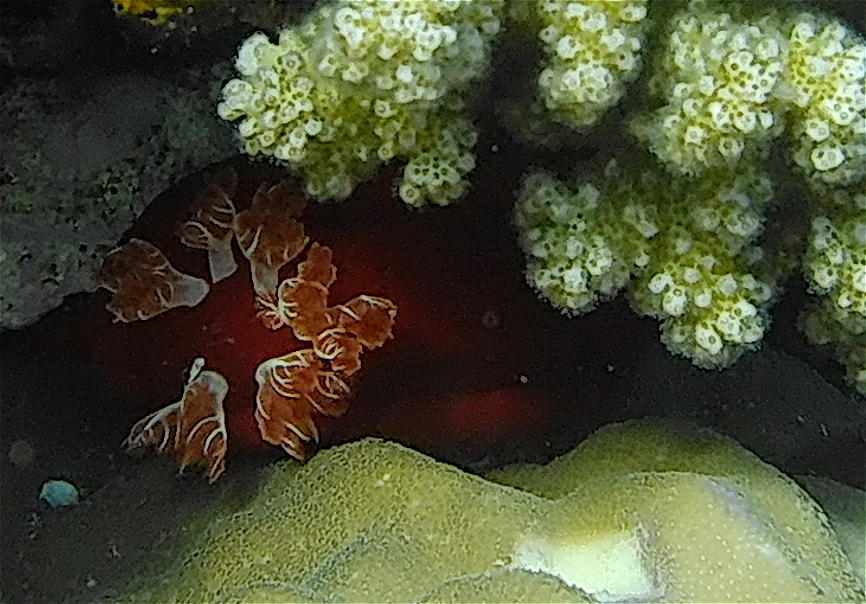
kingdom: Animalia
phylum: Mollusca
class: Gastropoda
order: Nudibranchia
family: Hexabranchidae
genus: Hexabranchus
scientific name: Hexabranchus sanguineus
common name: Spanish dancer
